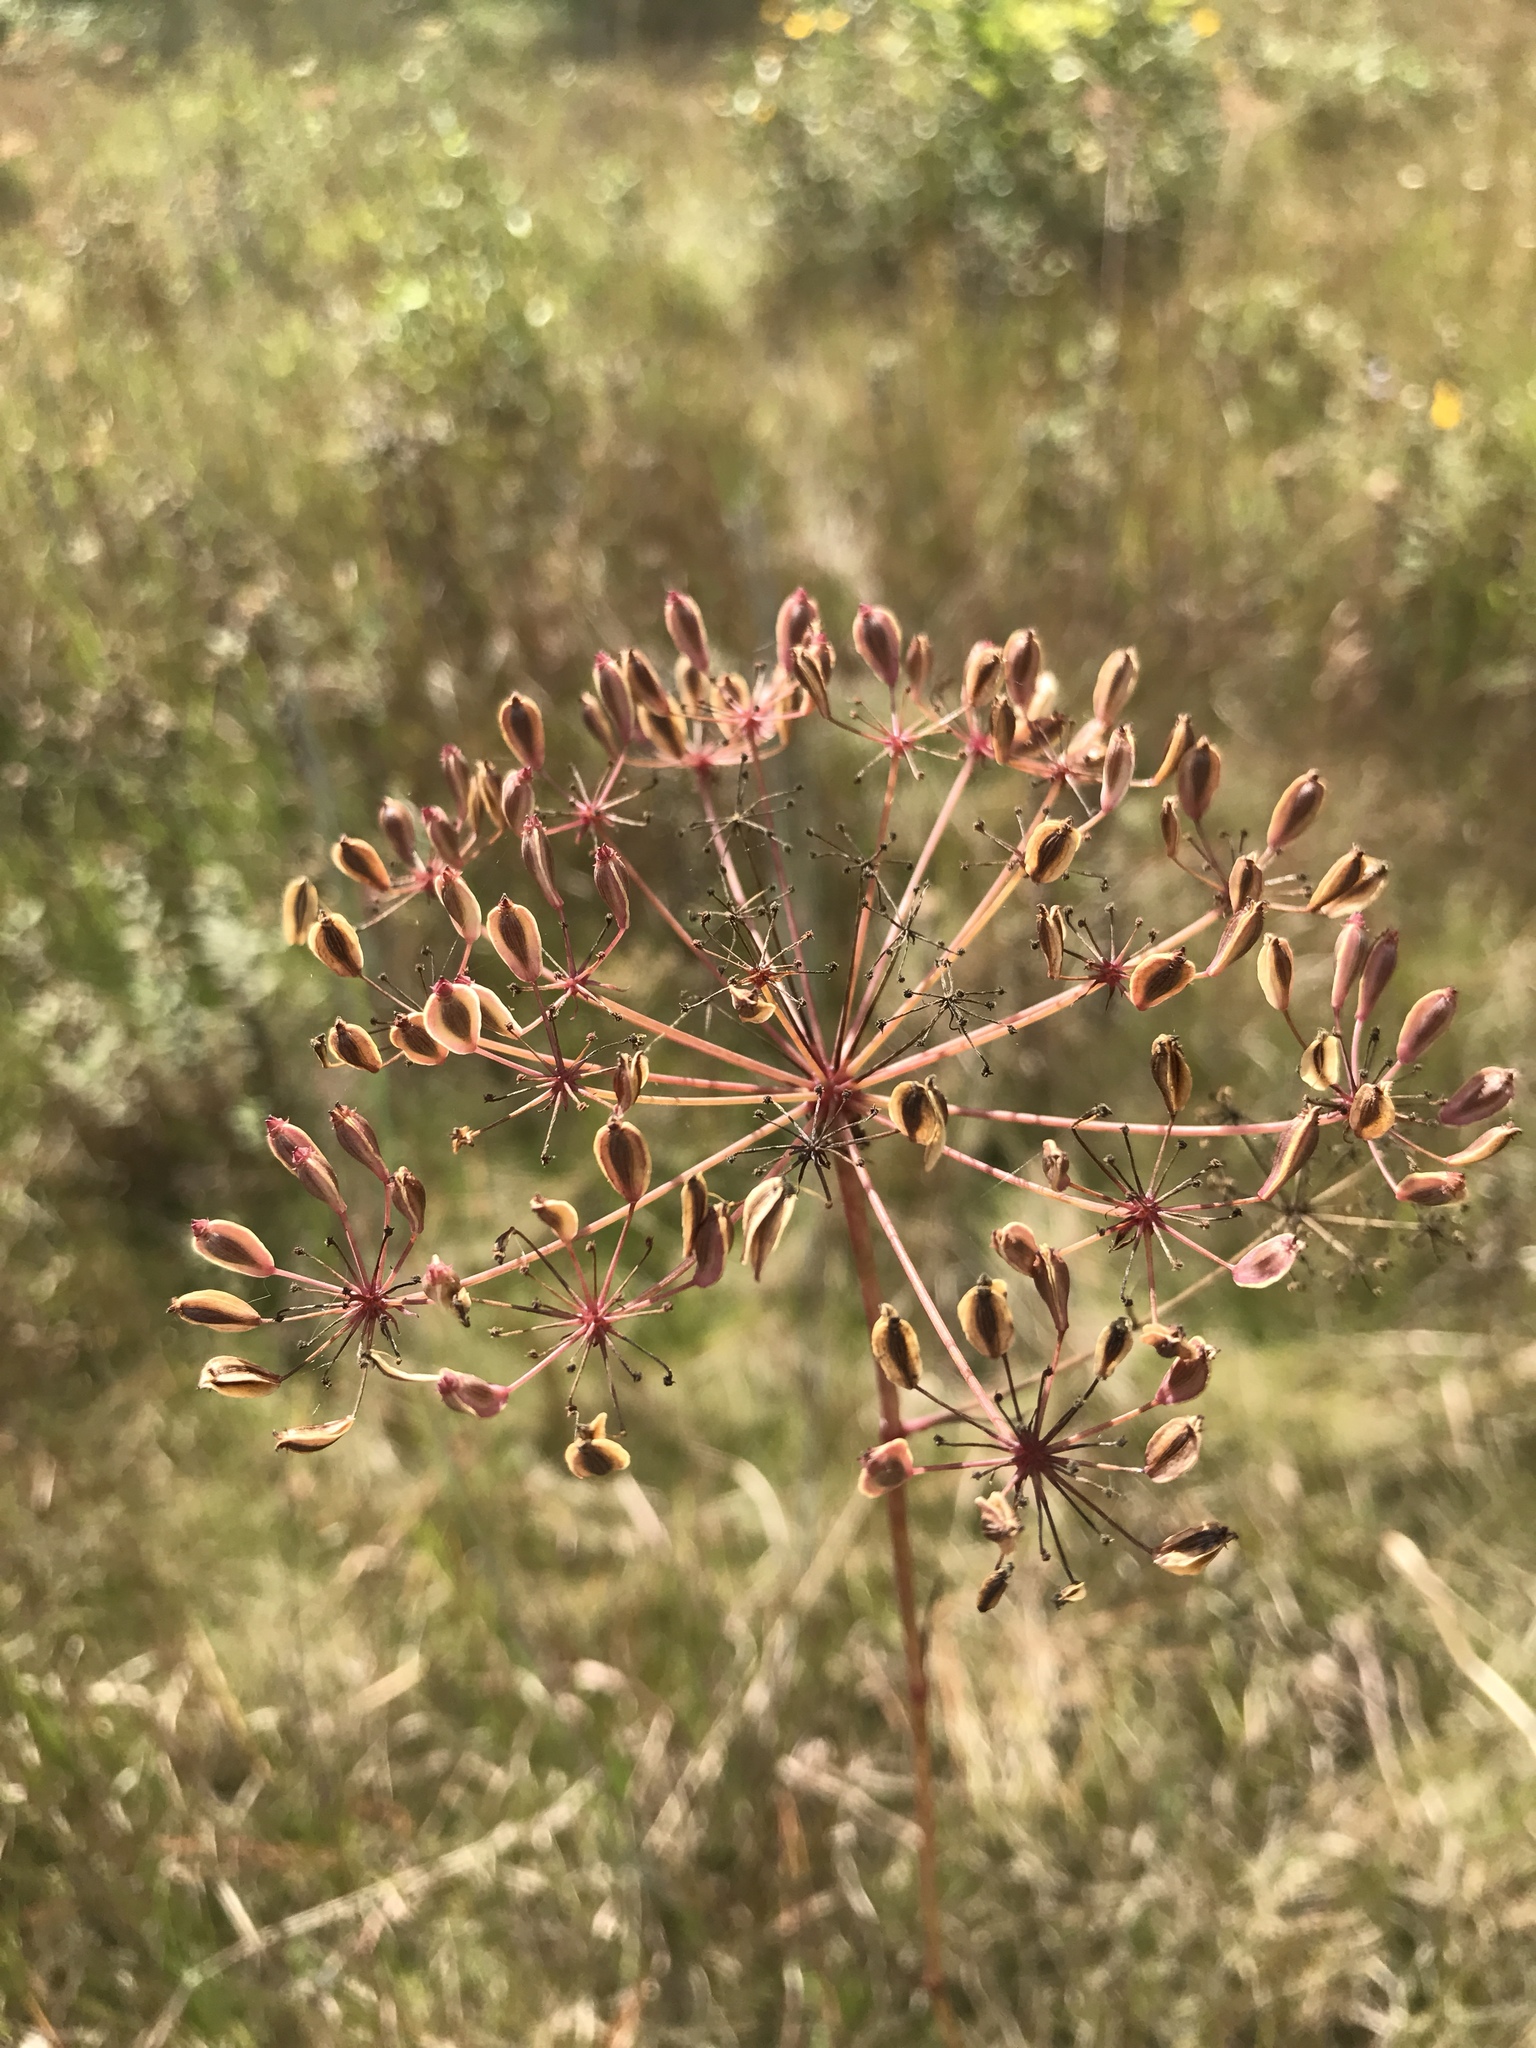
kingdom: Plantae
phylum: Tracheophyta
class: Magnoliopsida
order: Apiales
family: Apiaceae
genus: Tiedemannia
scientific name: Tiedemannia filiformis
